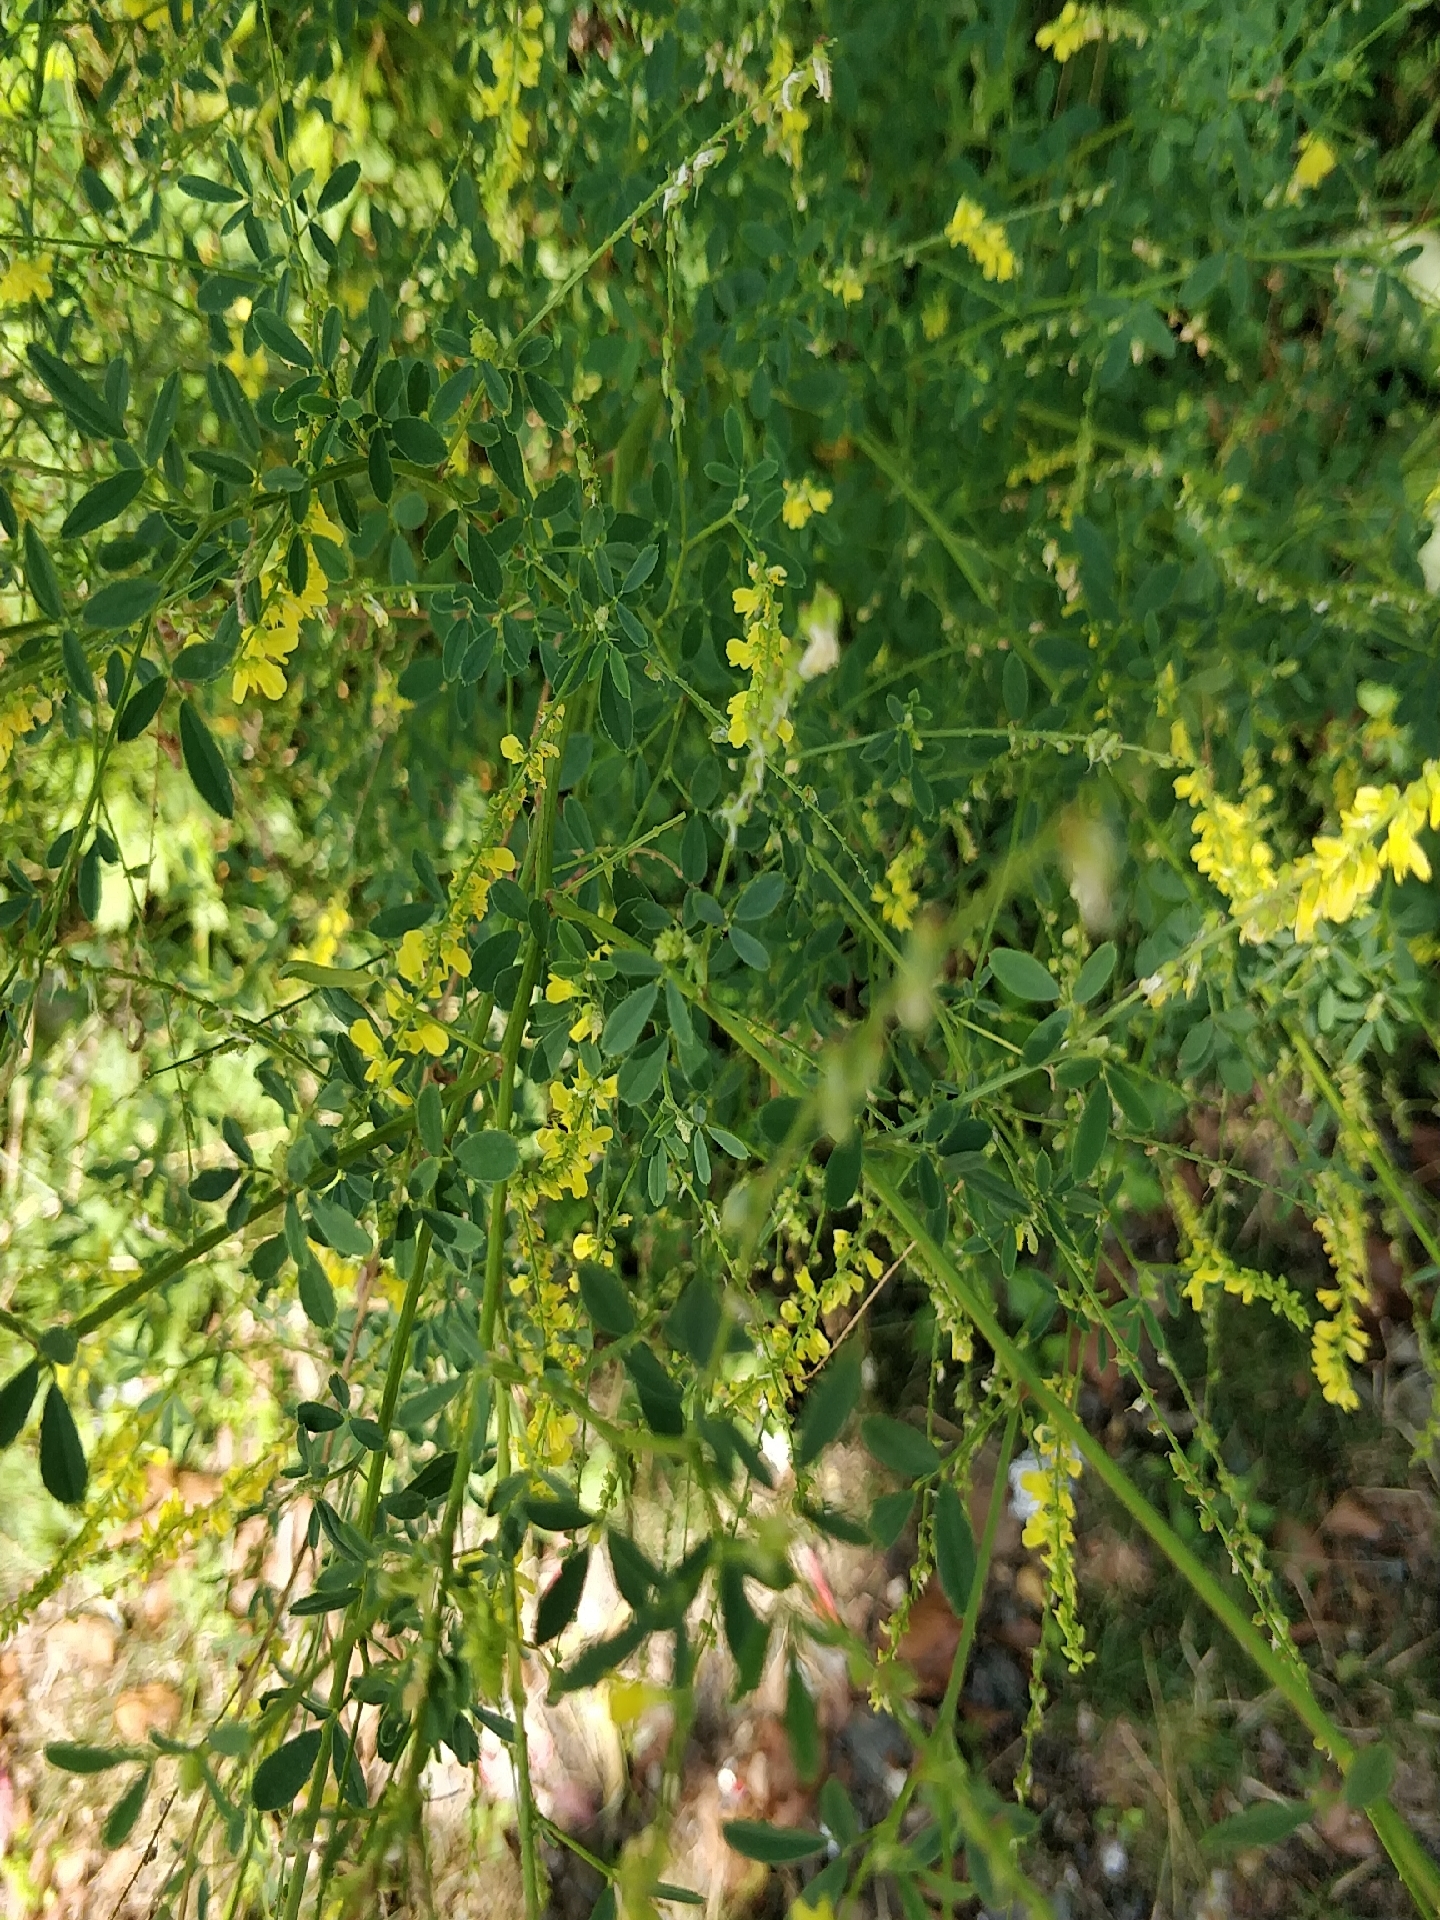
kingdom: Plantae
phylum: Tracheophyta
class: Magnoliopsida
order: Fabales
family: Fabaceae
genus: Melilotus
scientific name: Melilotus officinalis
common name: Sweetclover
